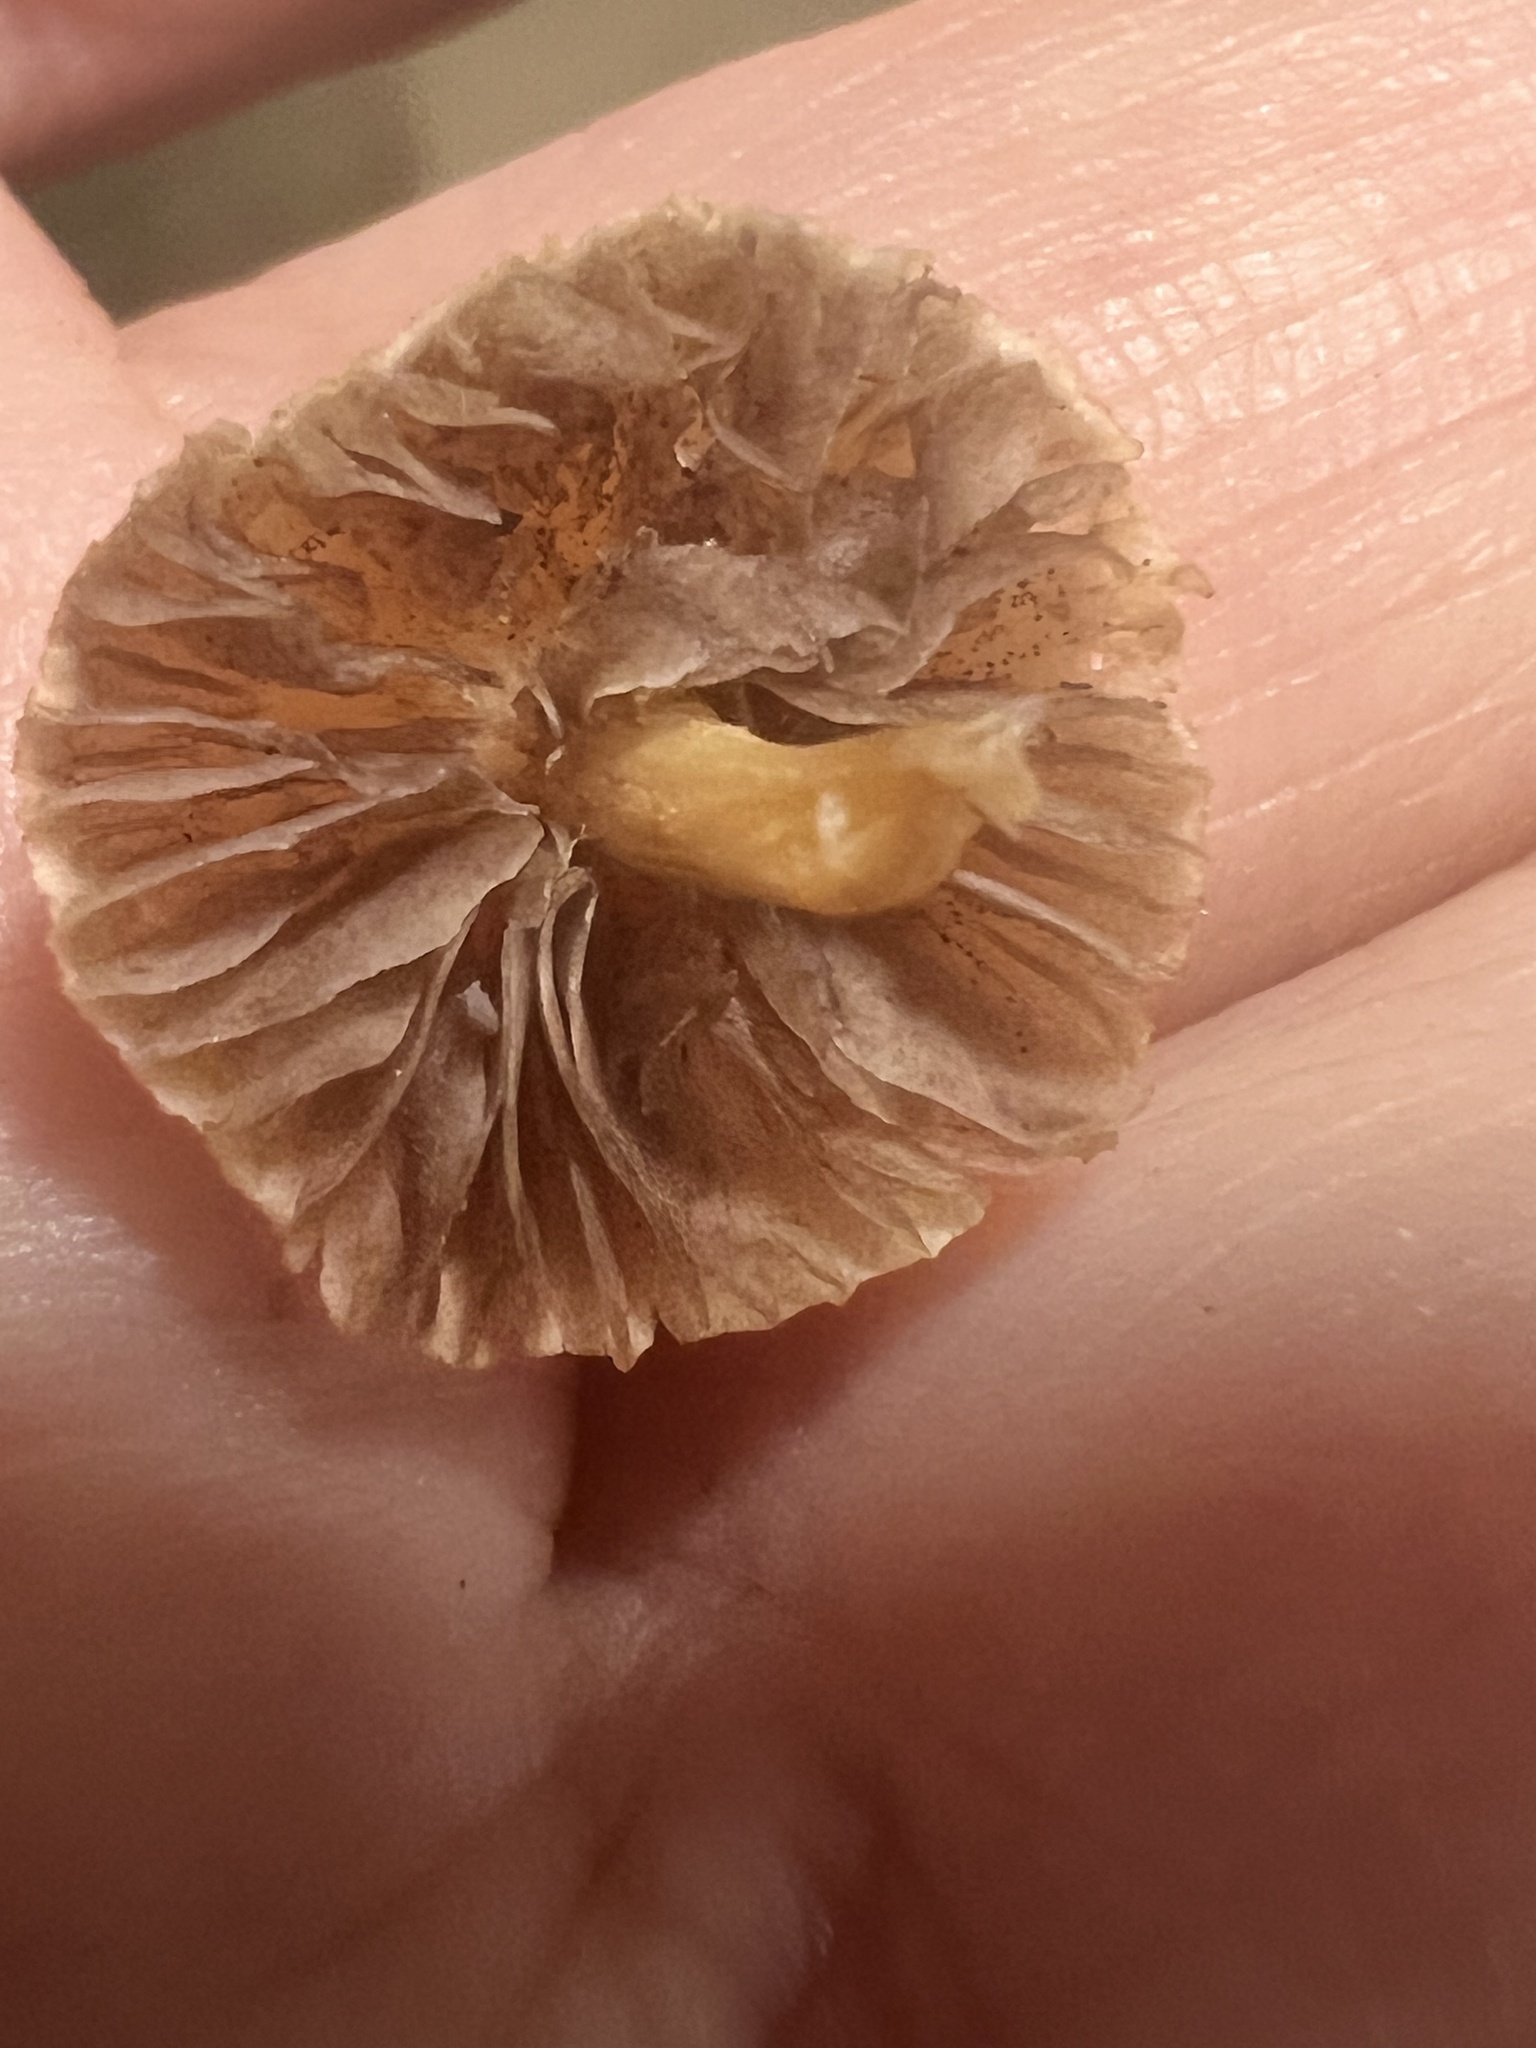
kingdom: Fungi
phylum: Basidiomycota
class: Agaricomycetes
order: Agaricales
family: Strophariaceae
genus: Agrocybe
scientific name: Agrocybe pediades
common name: Common fieldcap
